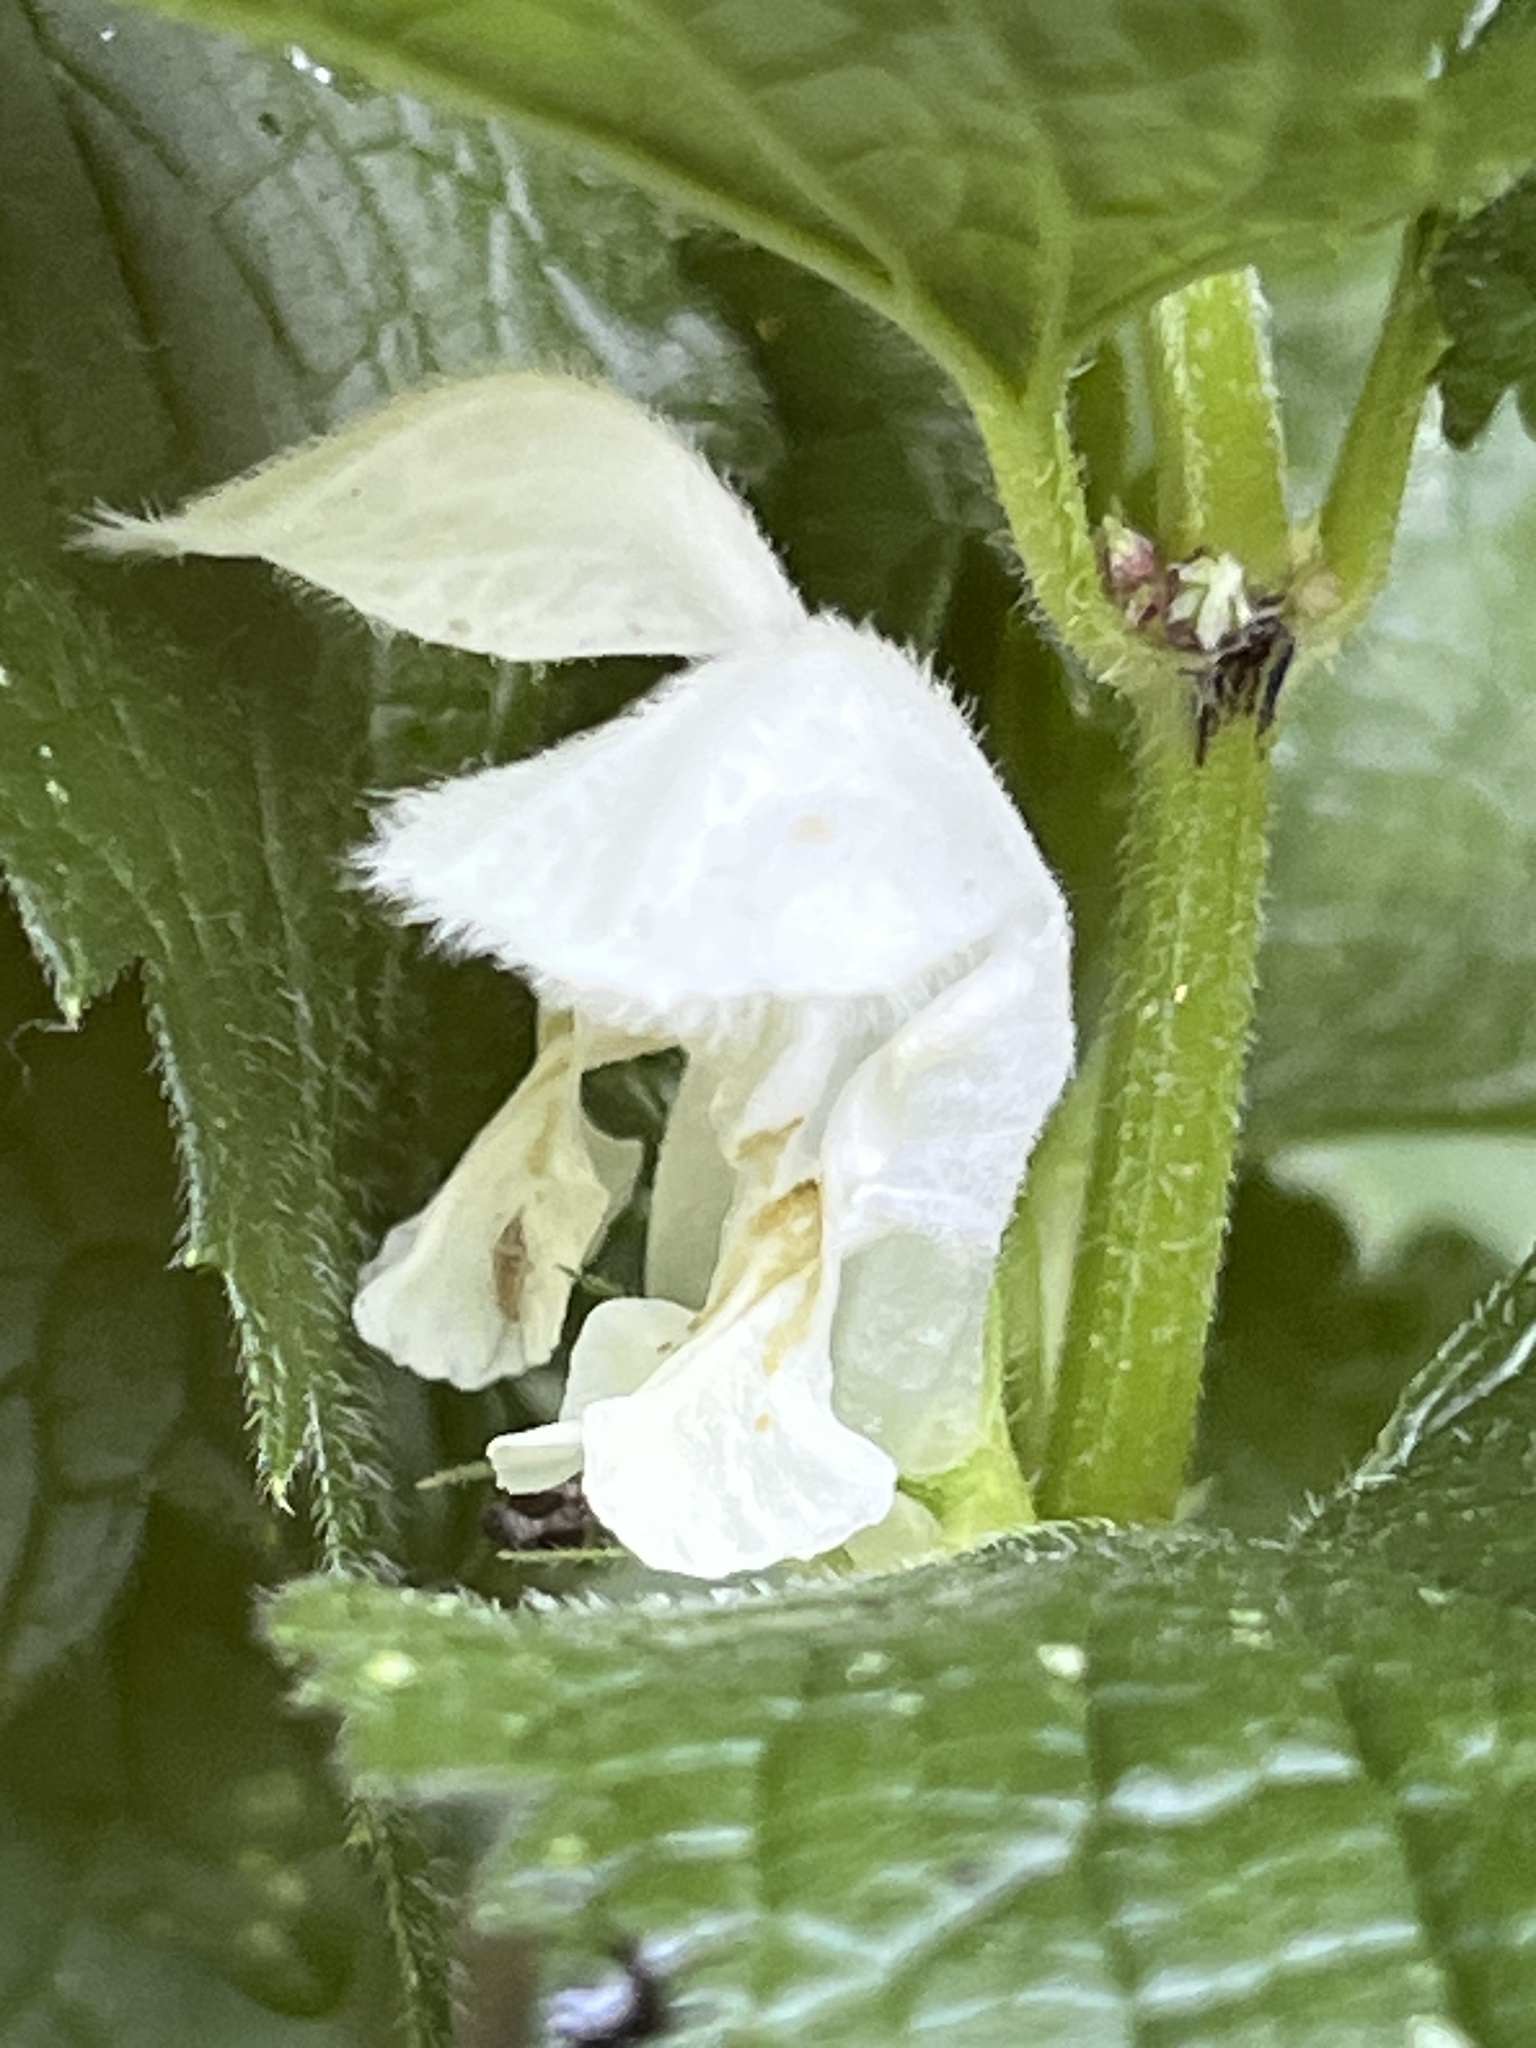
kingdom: Plantae
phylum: Tracheophyta
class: Magnoliopsida
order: Lamiales
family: Lamiaceae
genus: Lamium
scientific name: Lamium album
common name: White dead-nettle
